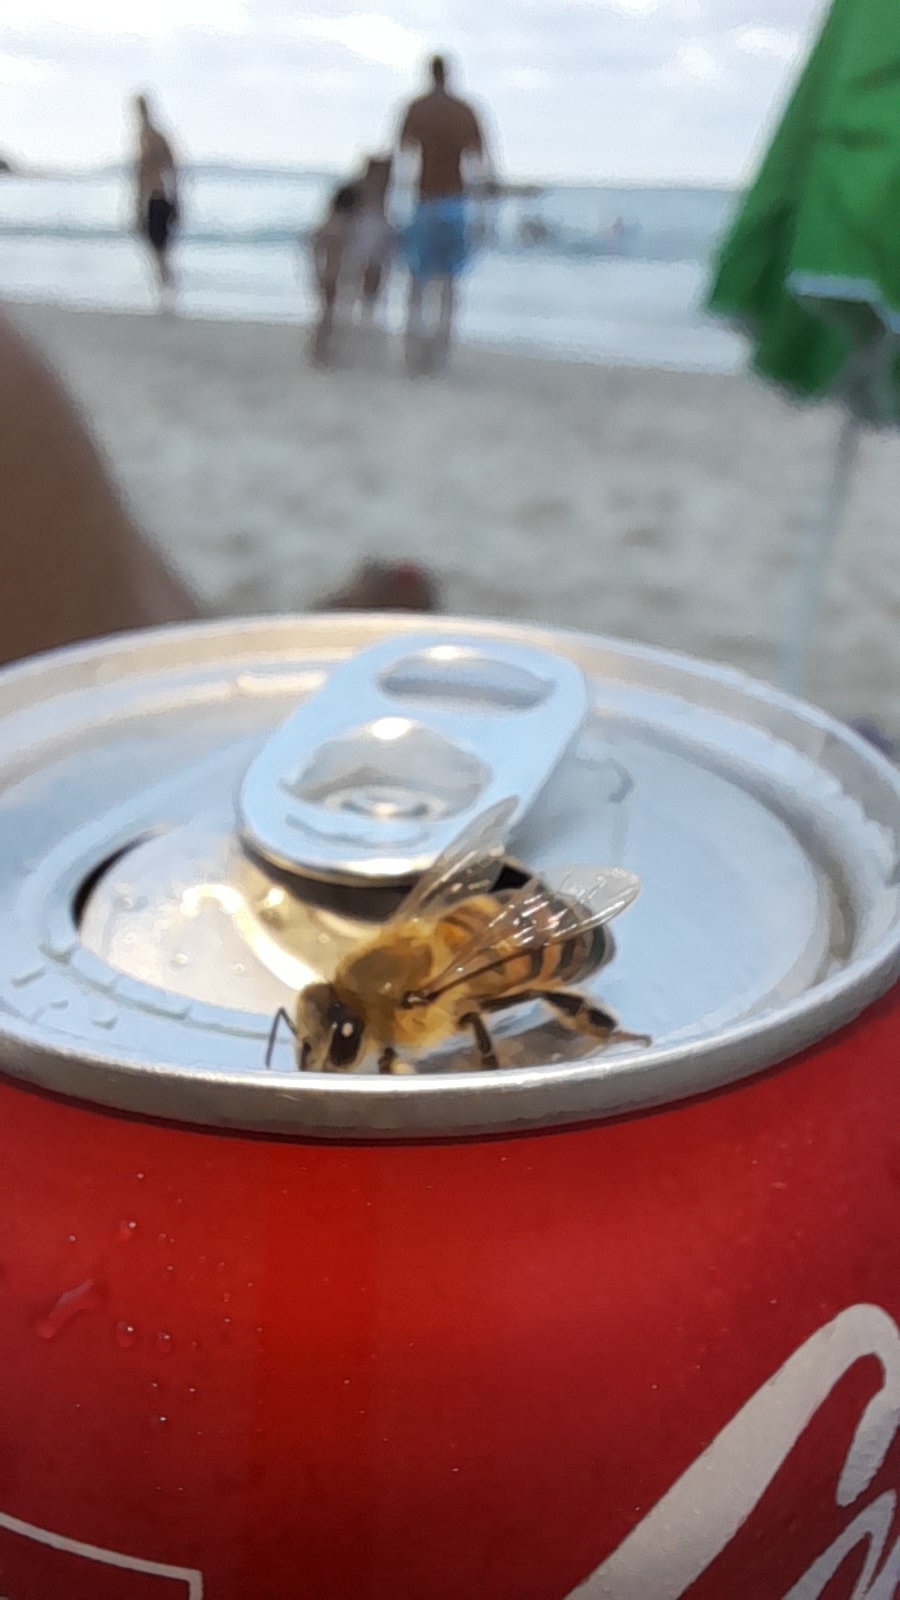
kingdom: Animalia
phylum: Arthropoda
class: Insecta
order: Hymenoptera
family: Apidae
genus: Apis
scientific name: Apis mellifera
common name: Honey bee
